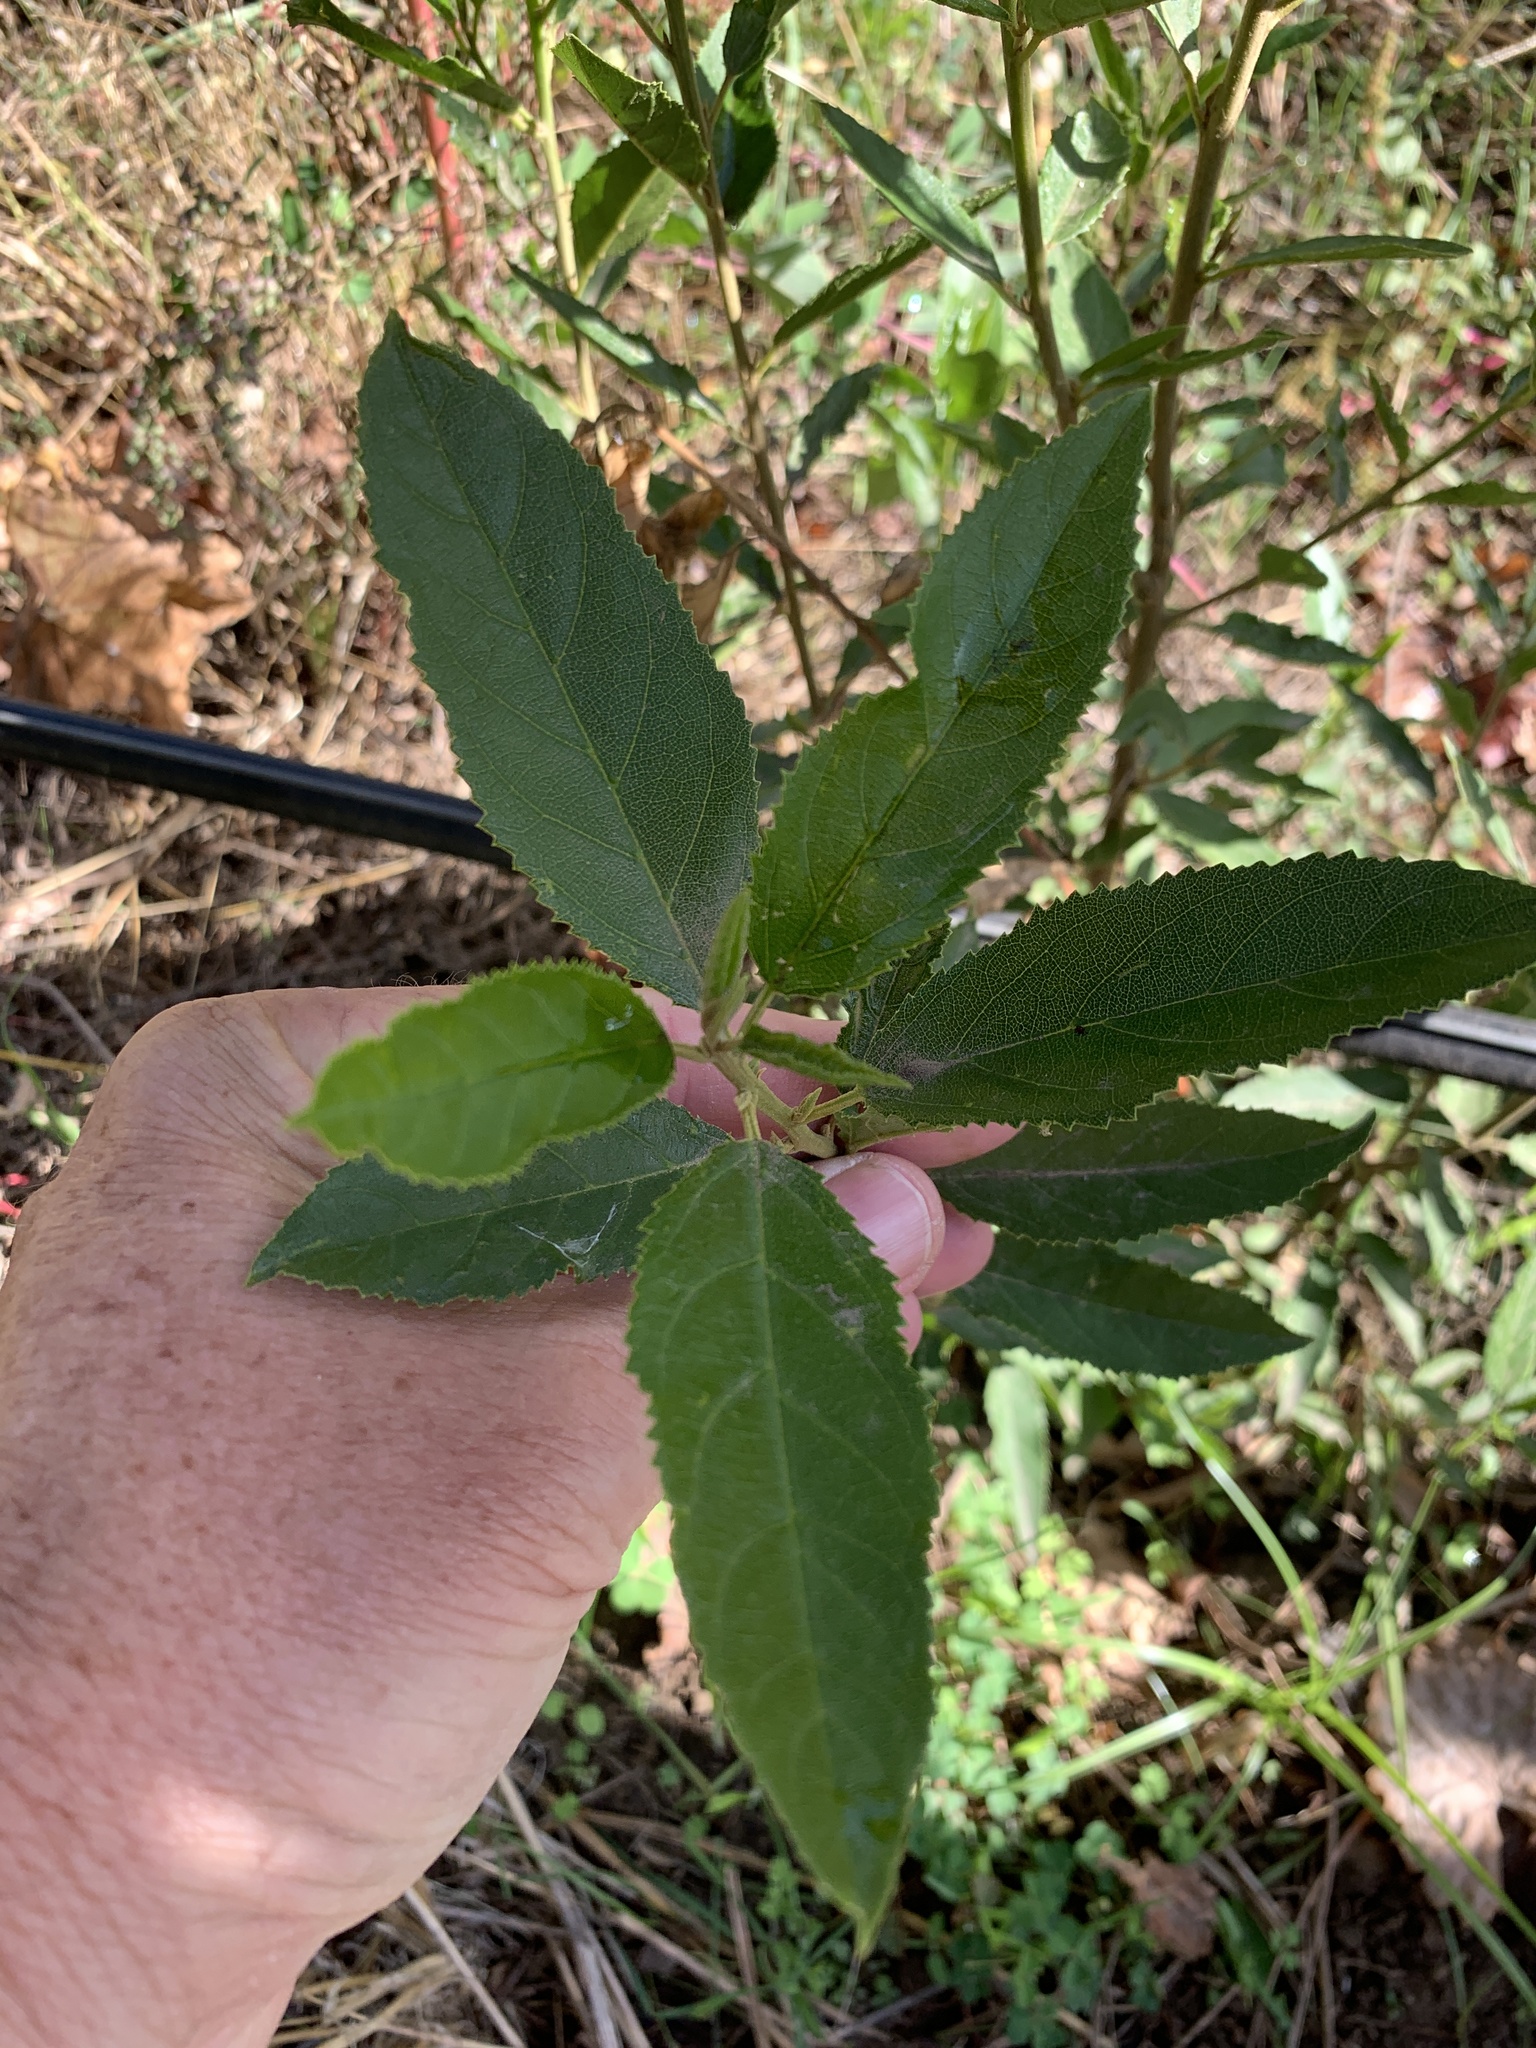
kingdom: Plantae
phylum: Tracheophyta
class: Magnoliopsida
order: Malpighiales
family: Achariaceae
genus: Kiggelaria
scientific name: Kiggelaria africana
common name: Wild peach
